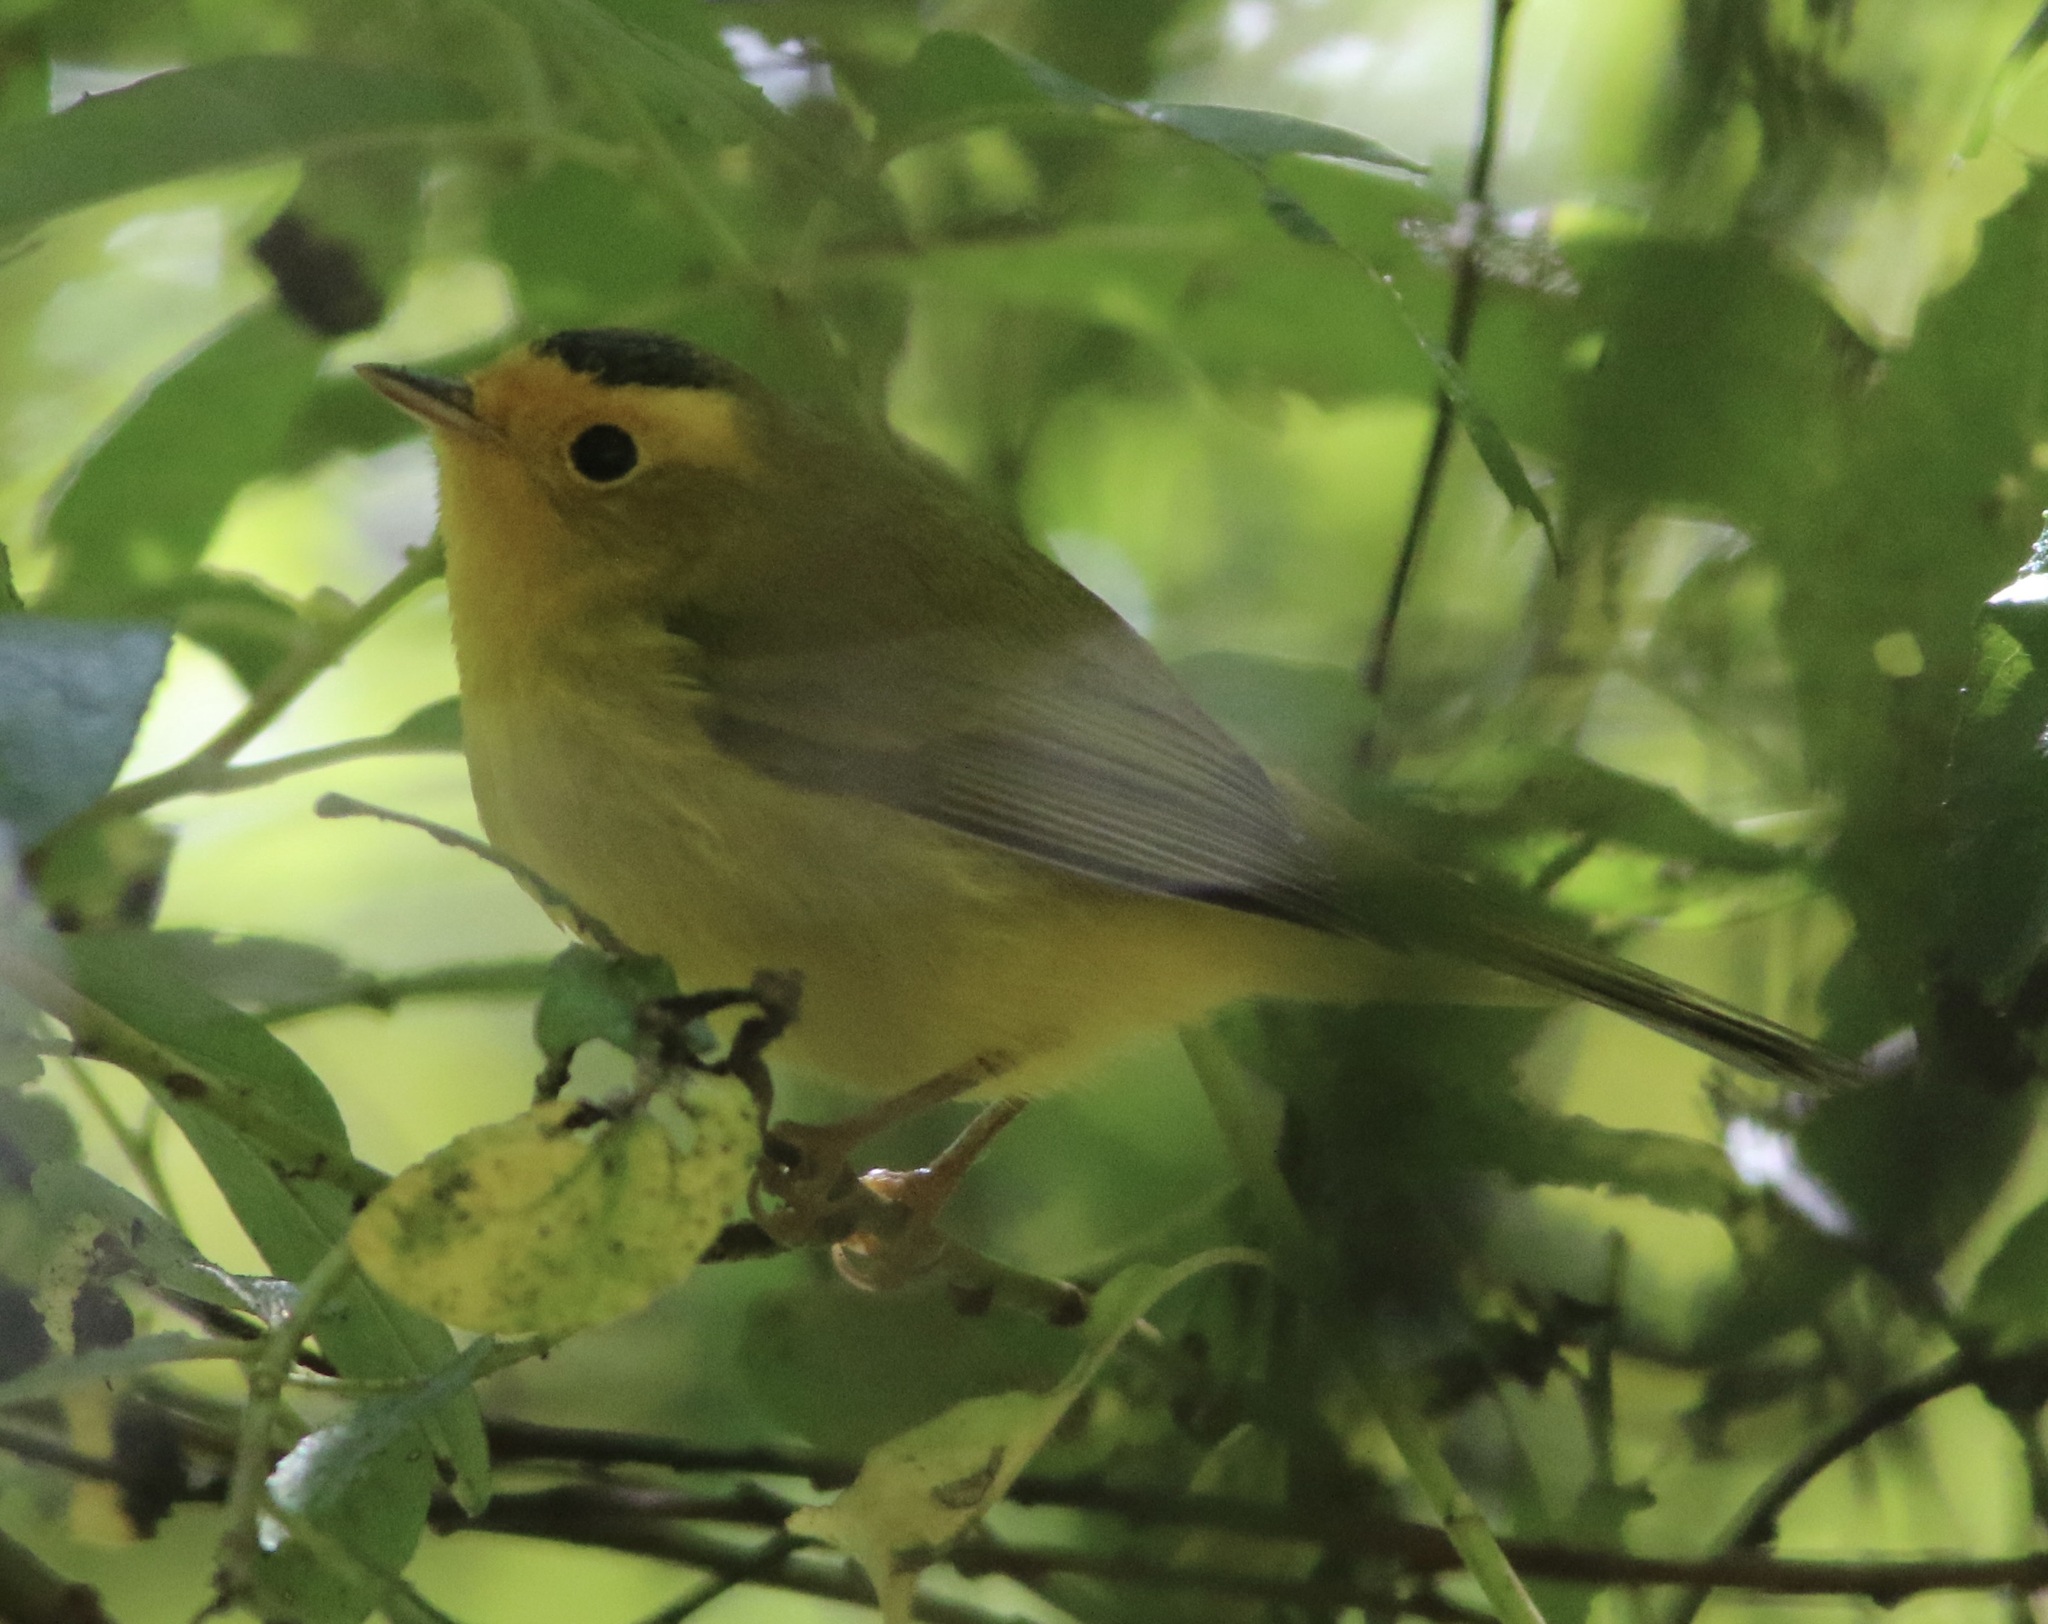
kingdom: Animalia
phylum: Chordata
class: Aves
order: Passeriformes
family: Parulidae
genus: Cardellina
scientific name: Cardellina pusilla
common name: Wilson's warbler
